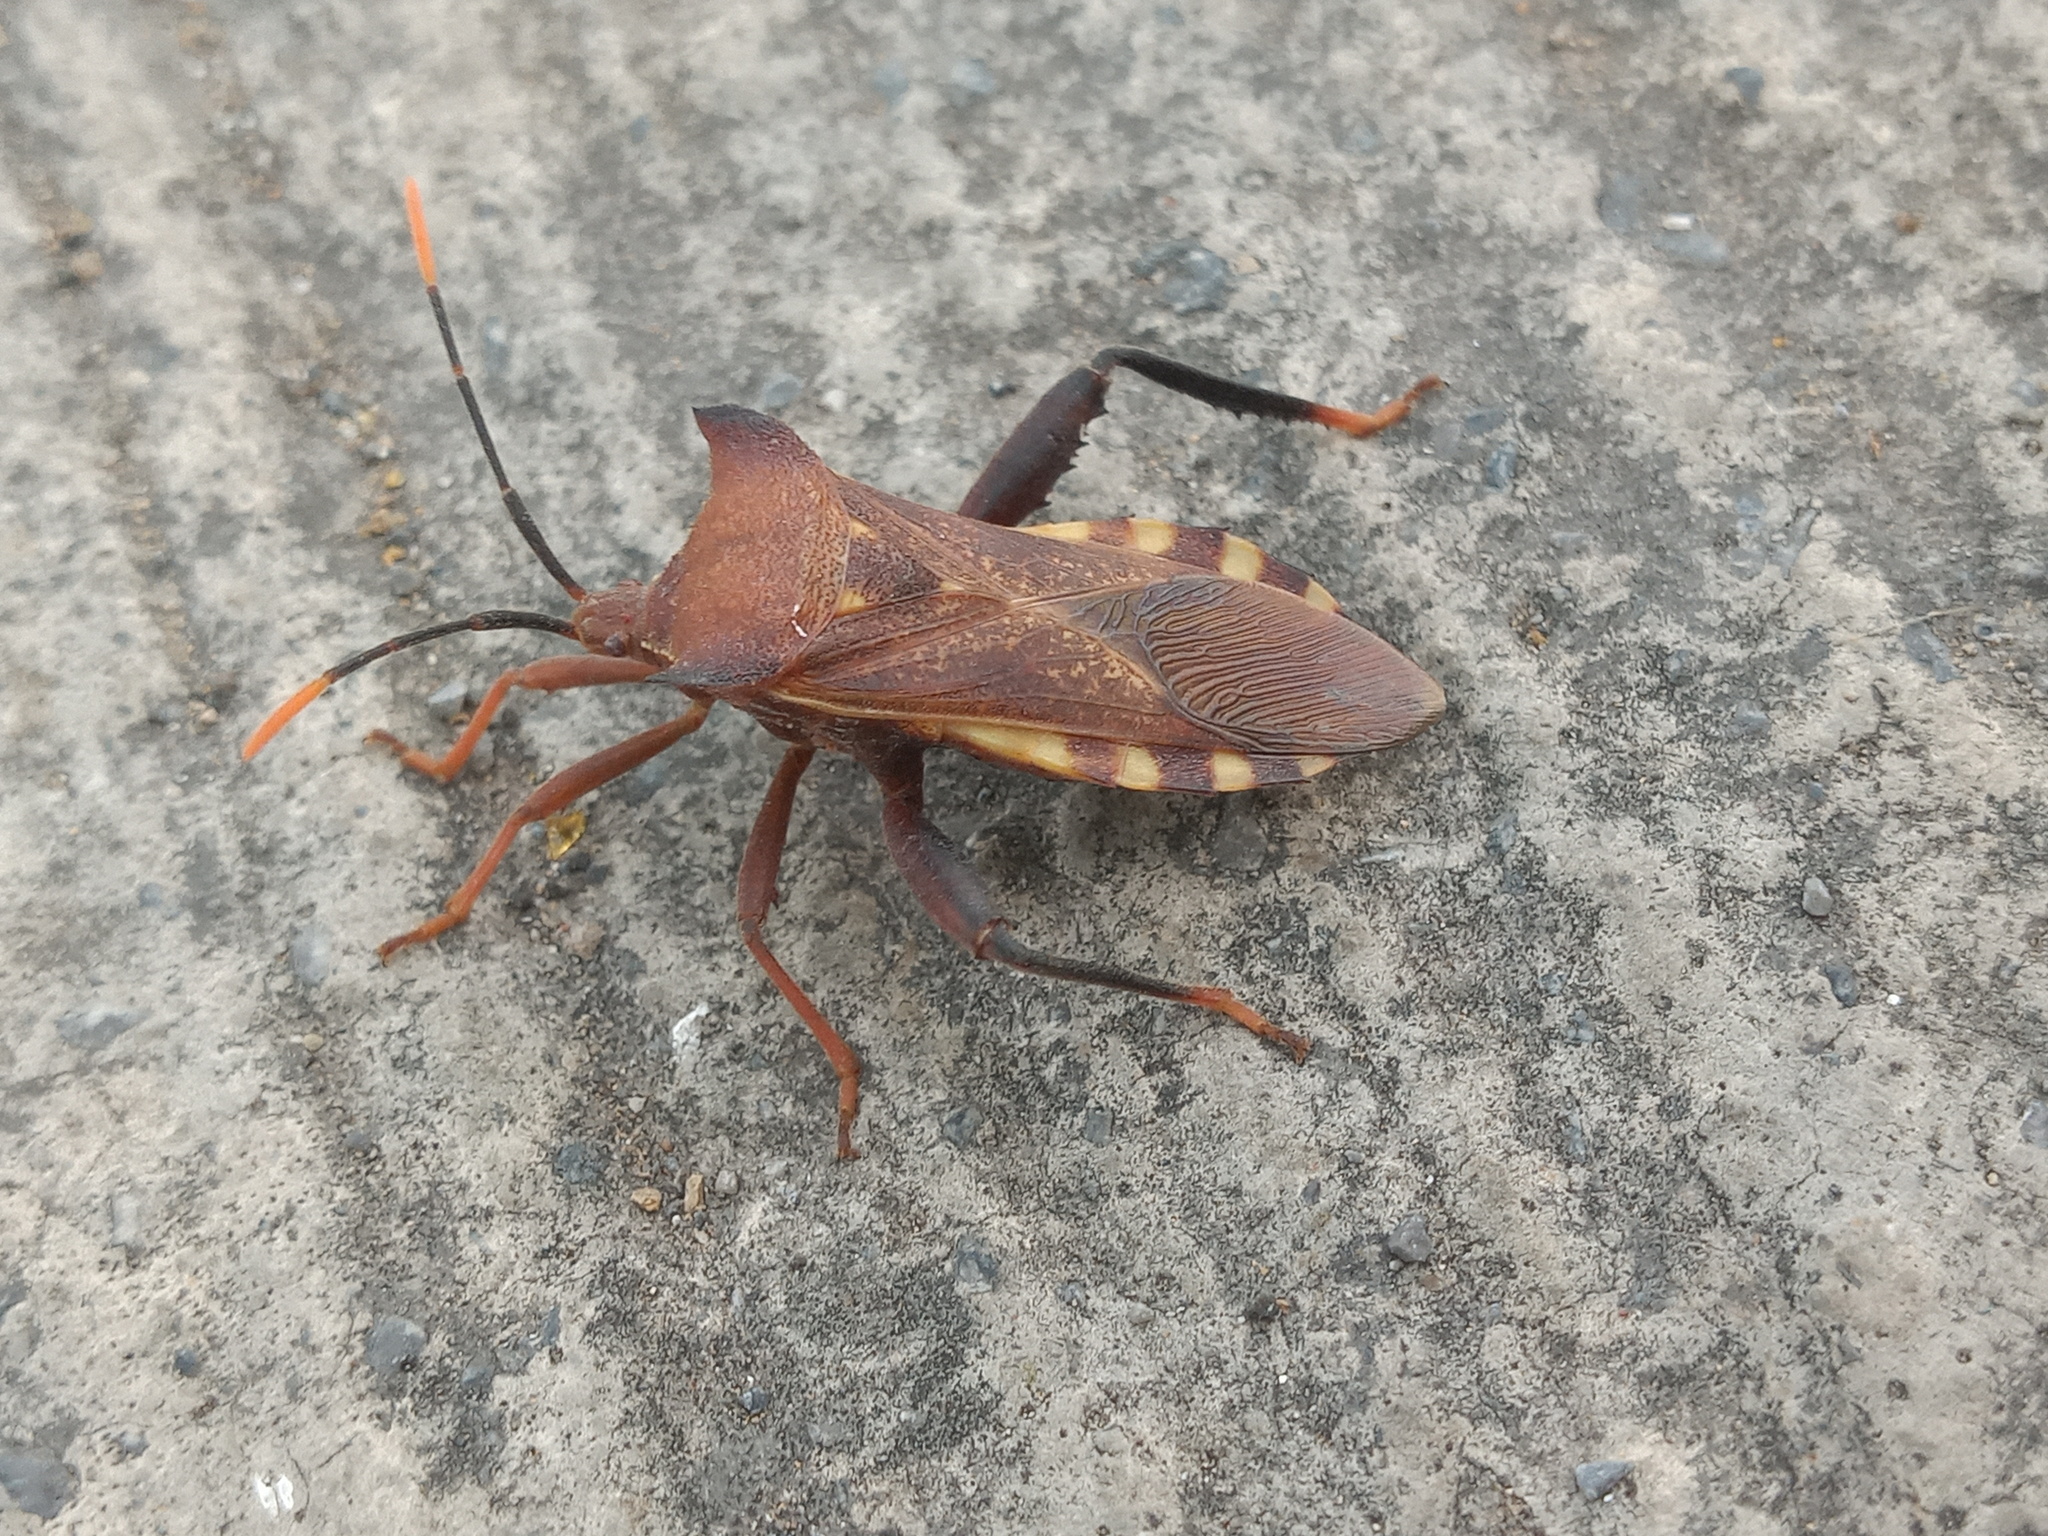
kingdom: Animalia
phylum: Arthropoda
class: Insecta
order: Hemiptera
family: Coreidae
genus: Mozena
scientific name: Mozena lunata
